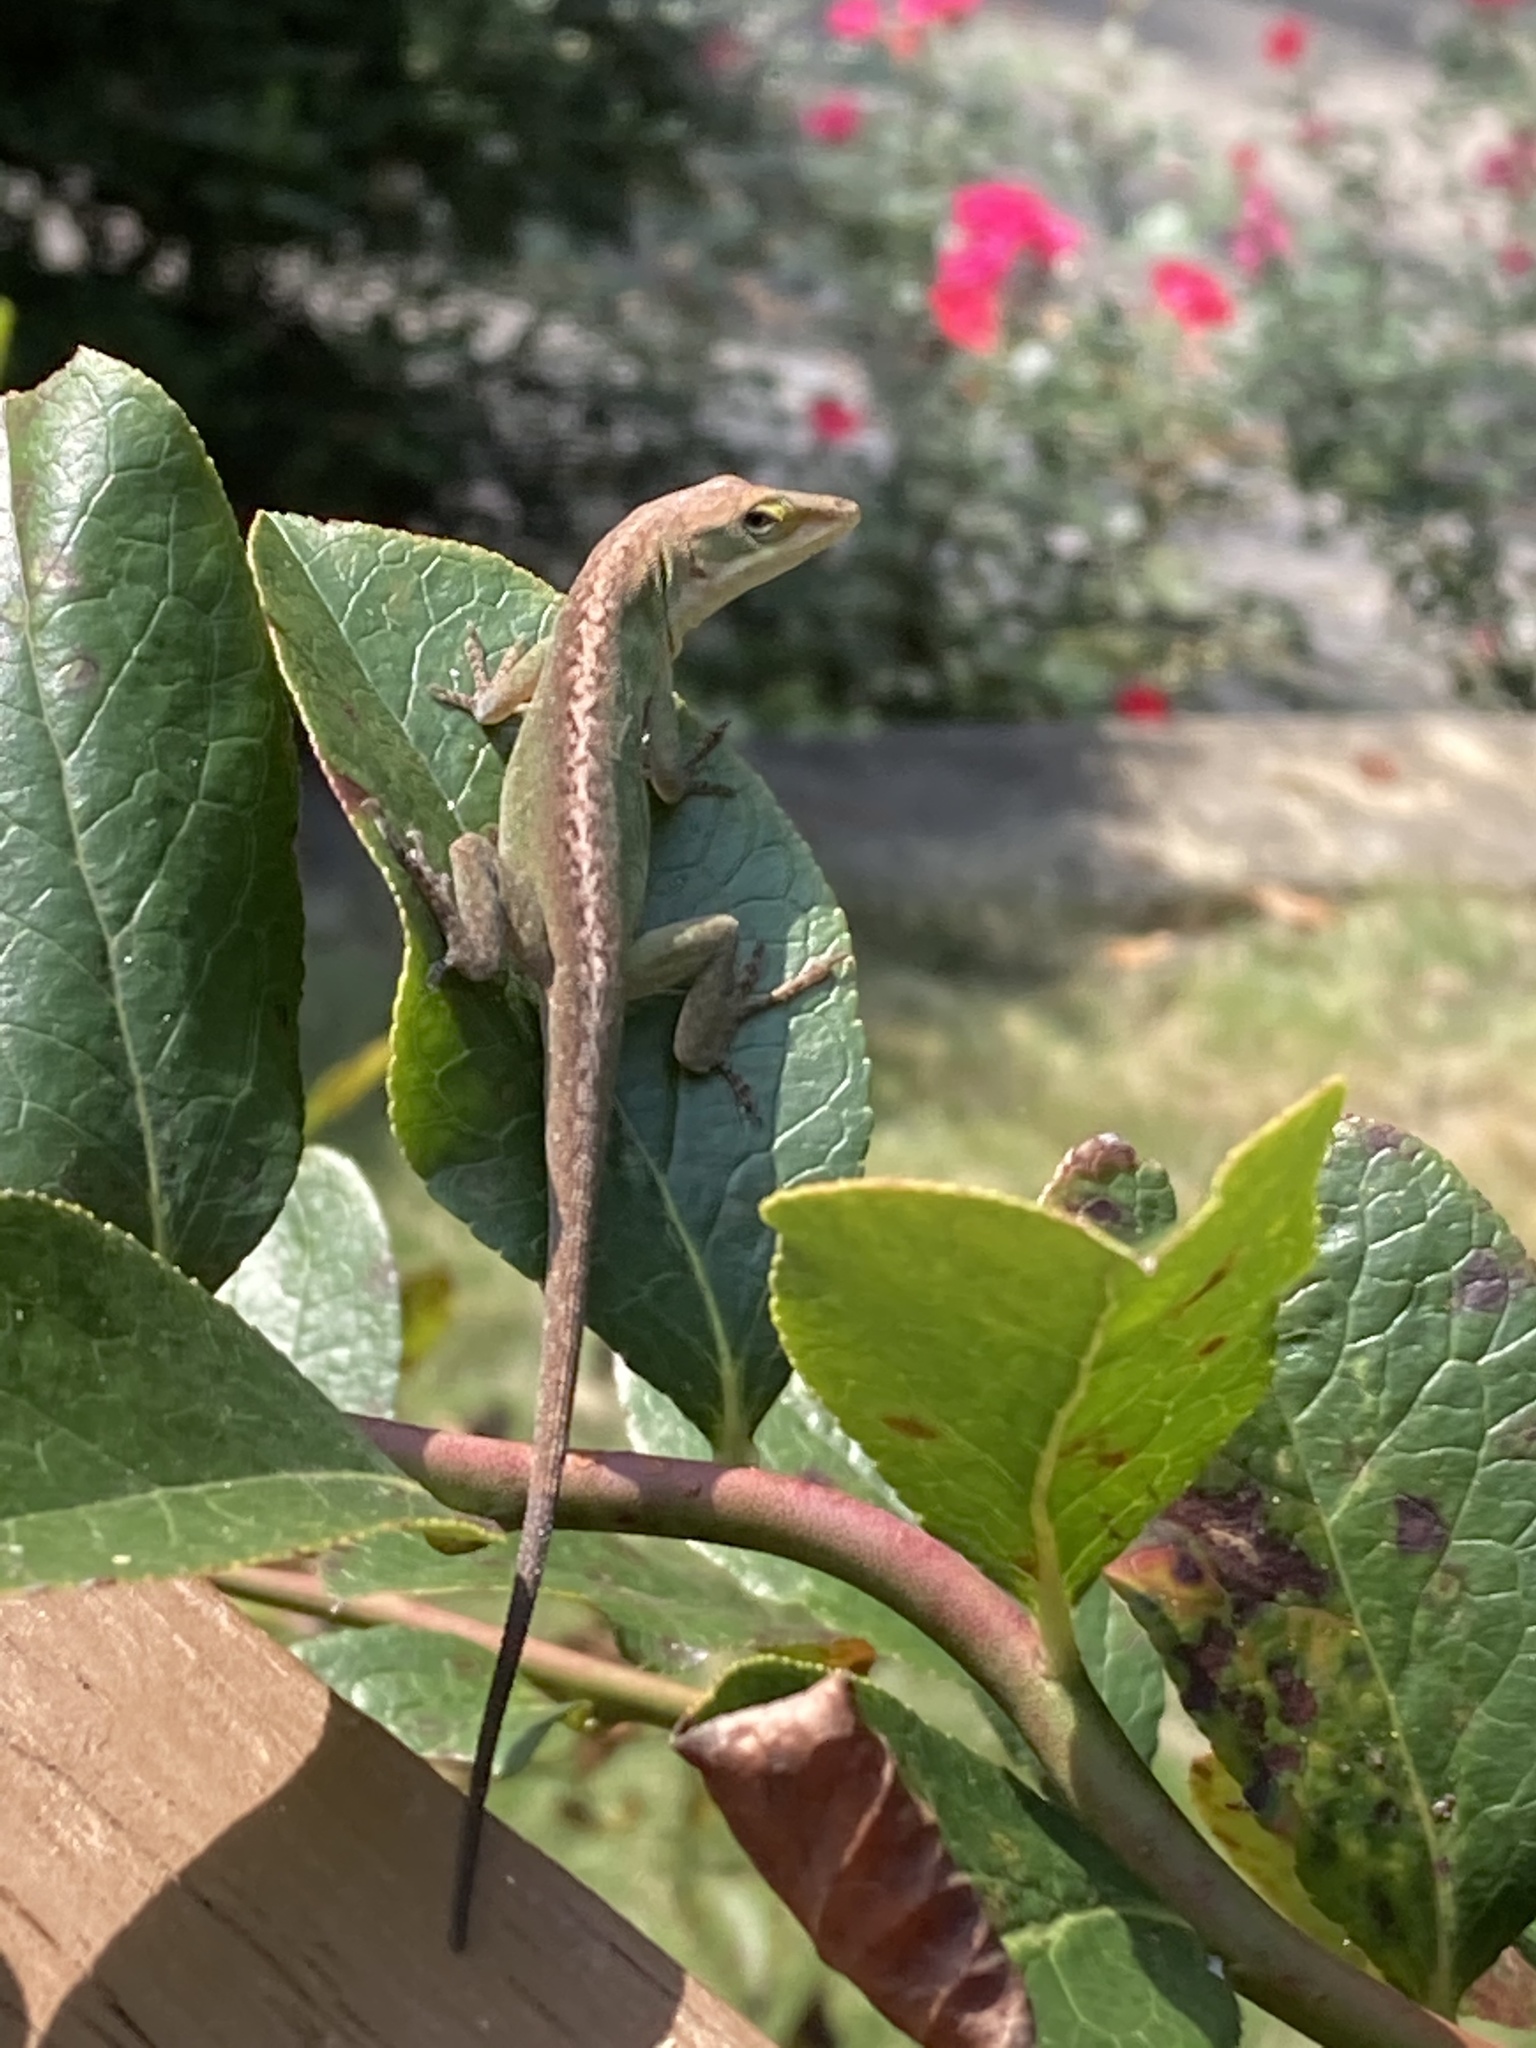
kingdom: Animalia
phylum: Chordata
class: Squamata
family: Dactyloidae
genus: Anolis
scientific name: Anolis carolinensis
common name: Green anole
